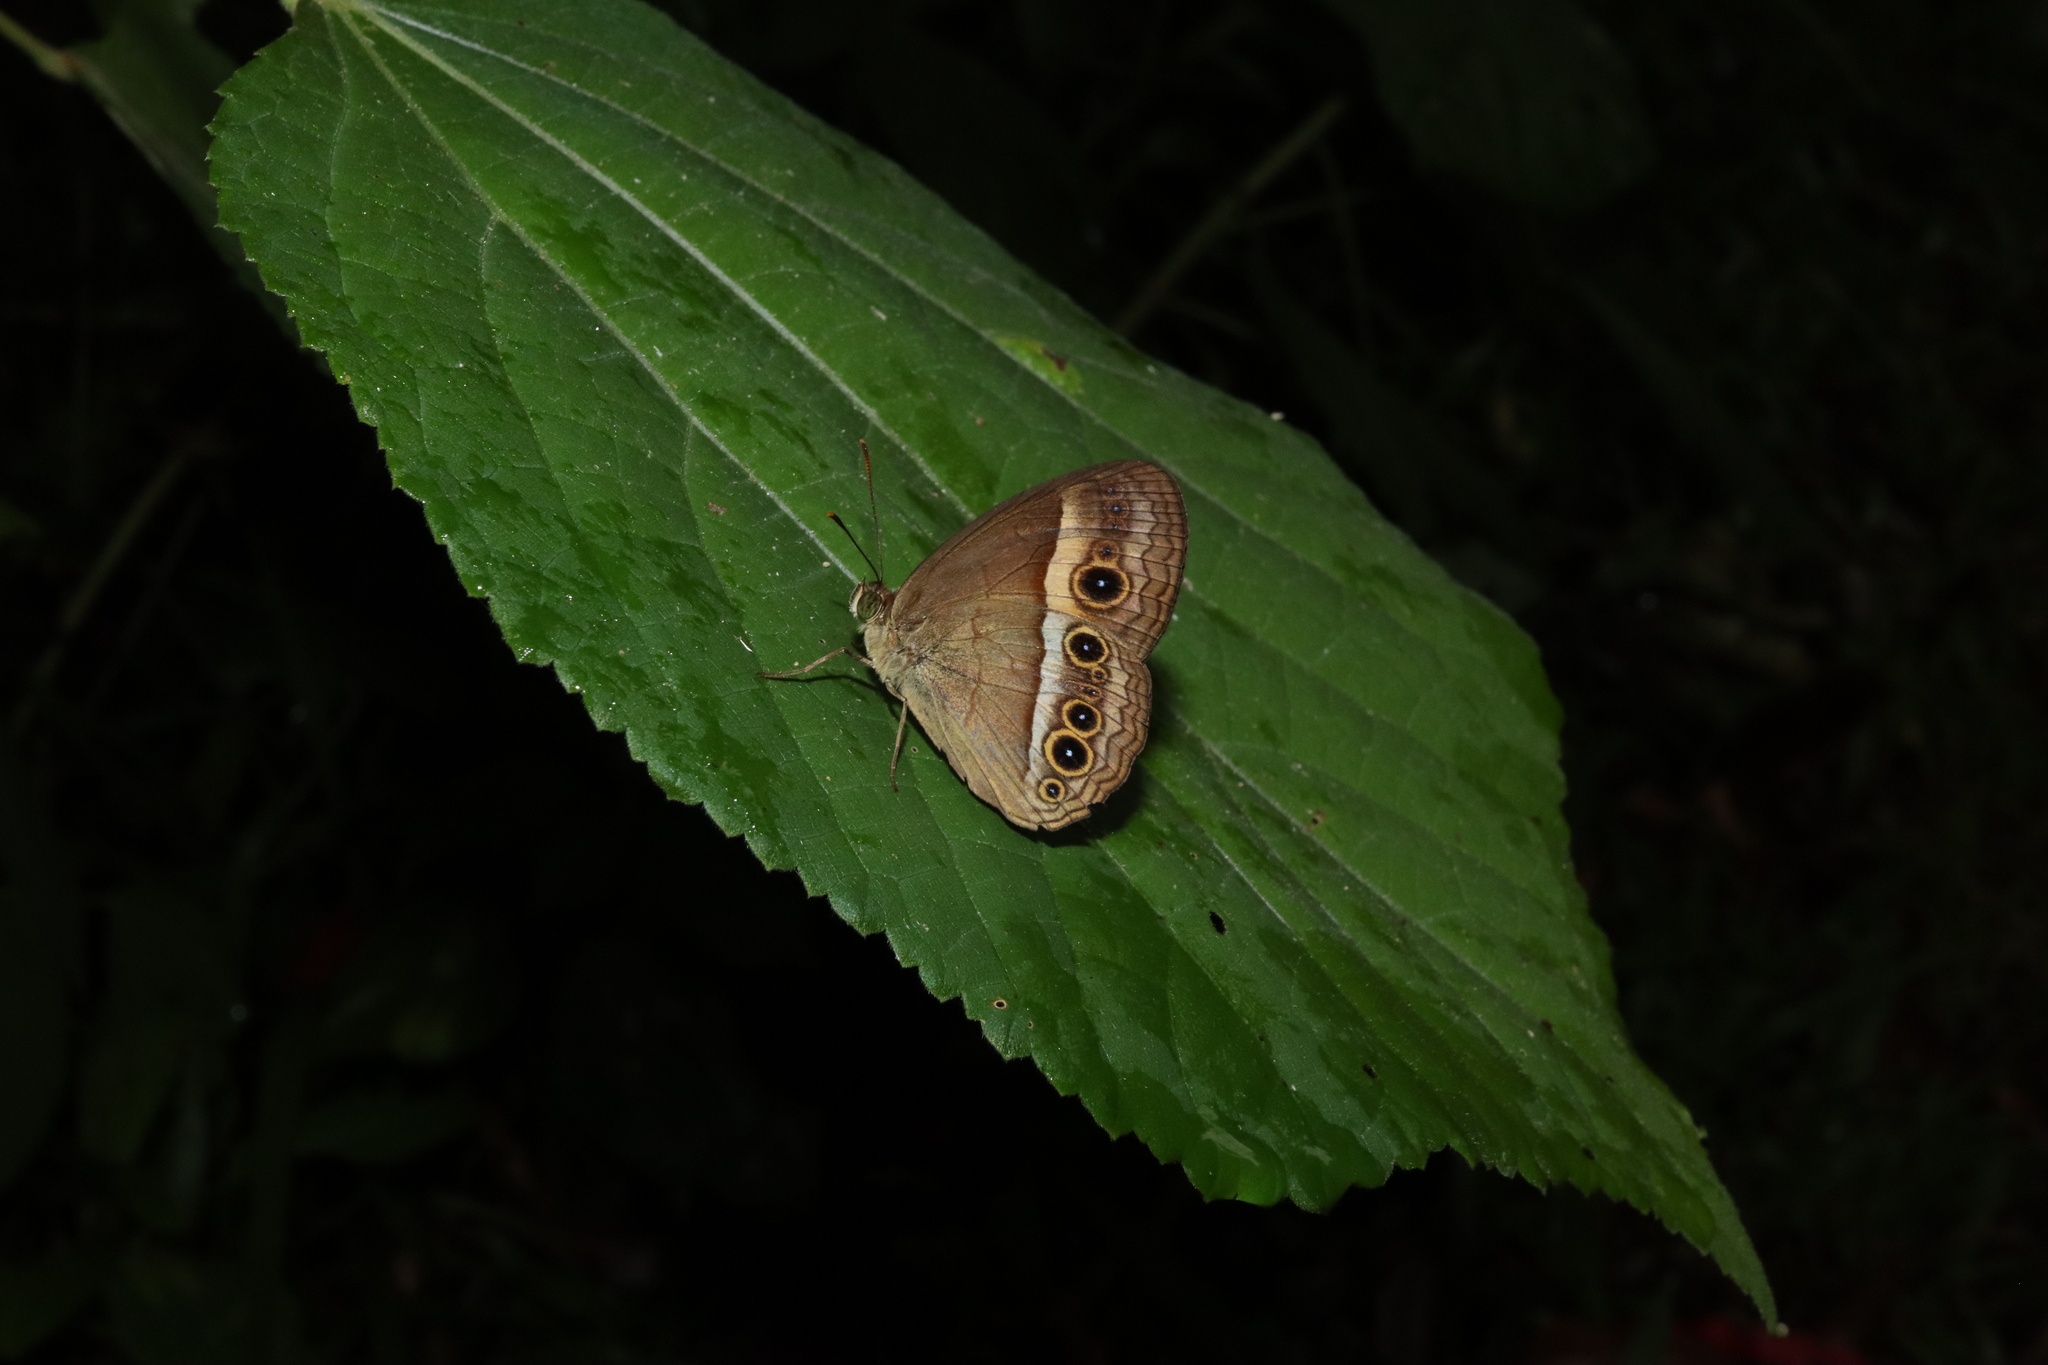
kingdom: Animalia
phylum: Arthropoda
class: Insecta
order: Lepidoptera
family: Nymphalidae
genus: Mycalesis
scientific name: Mycalesis terminus
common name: Orange bushbrown
